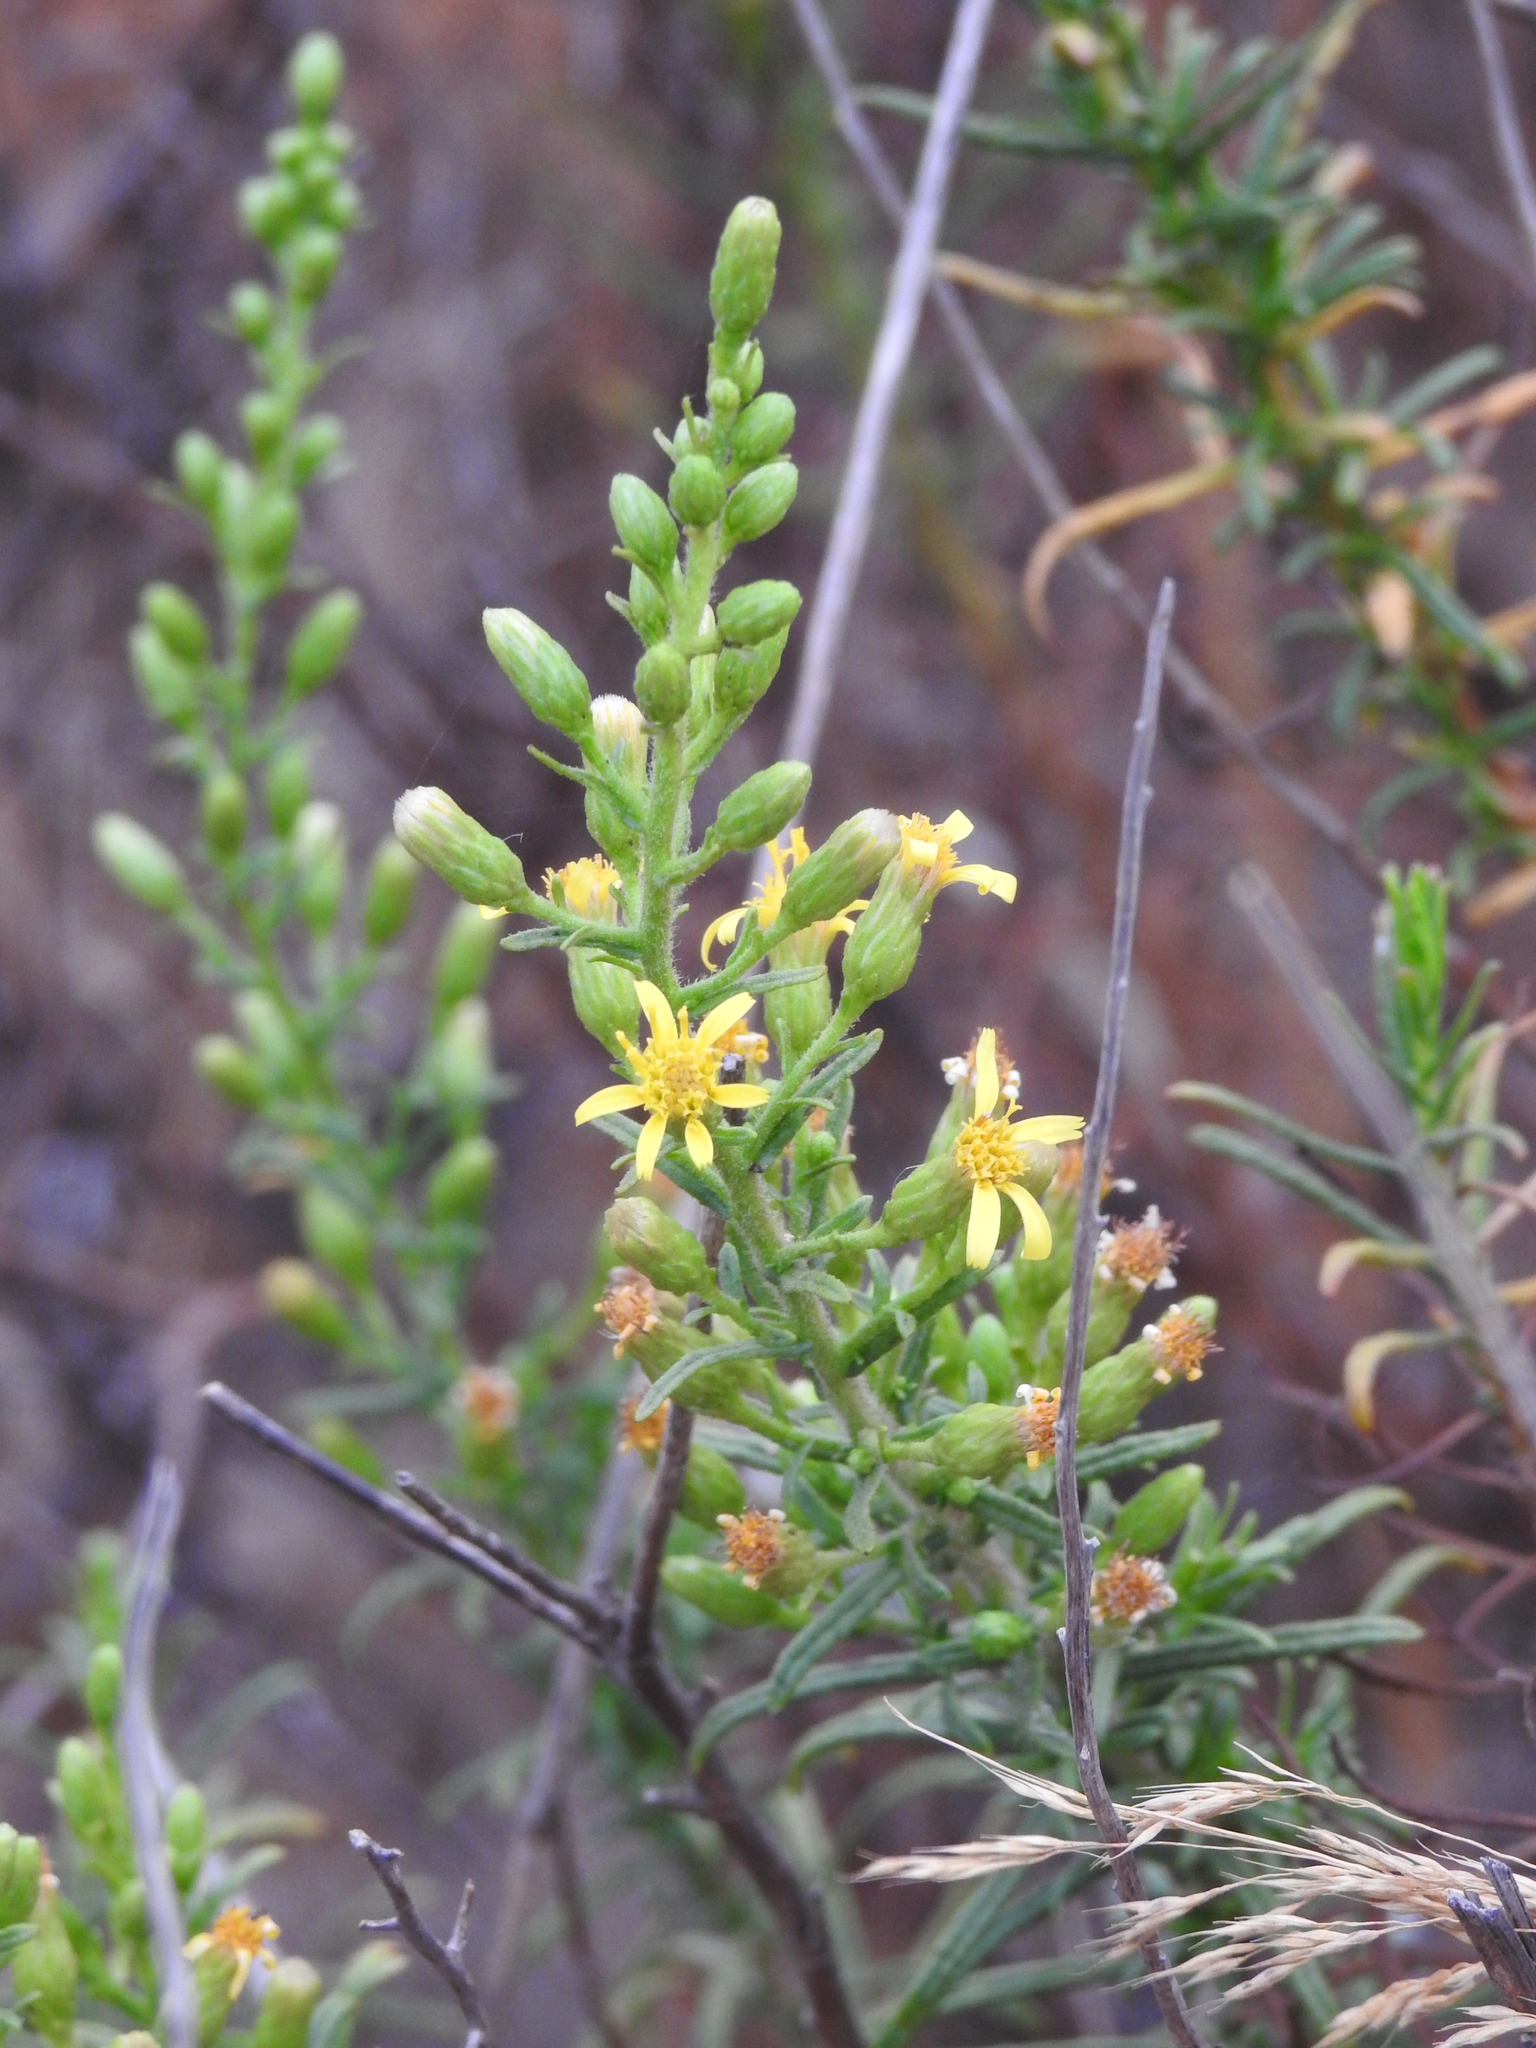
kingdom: Plantae
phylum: Tracheophyta
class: Magnoliopsida
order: Asterales
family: Asteraceae
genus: Dittrichia
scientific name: Dittrichia viscosa
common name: Woody fleabane
